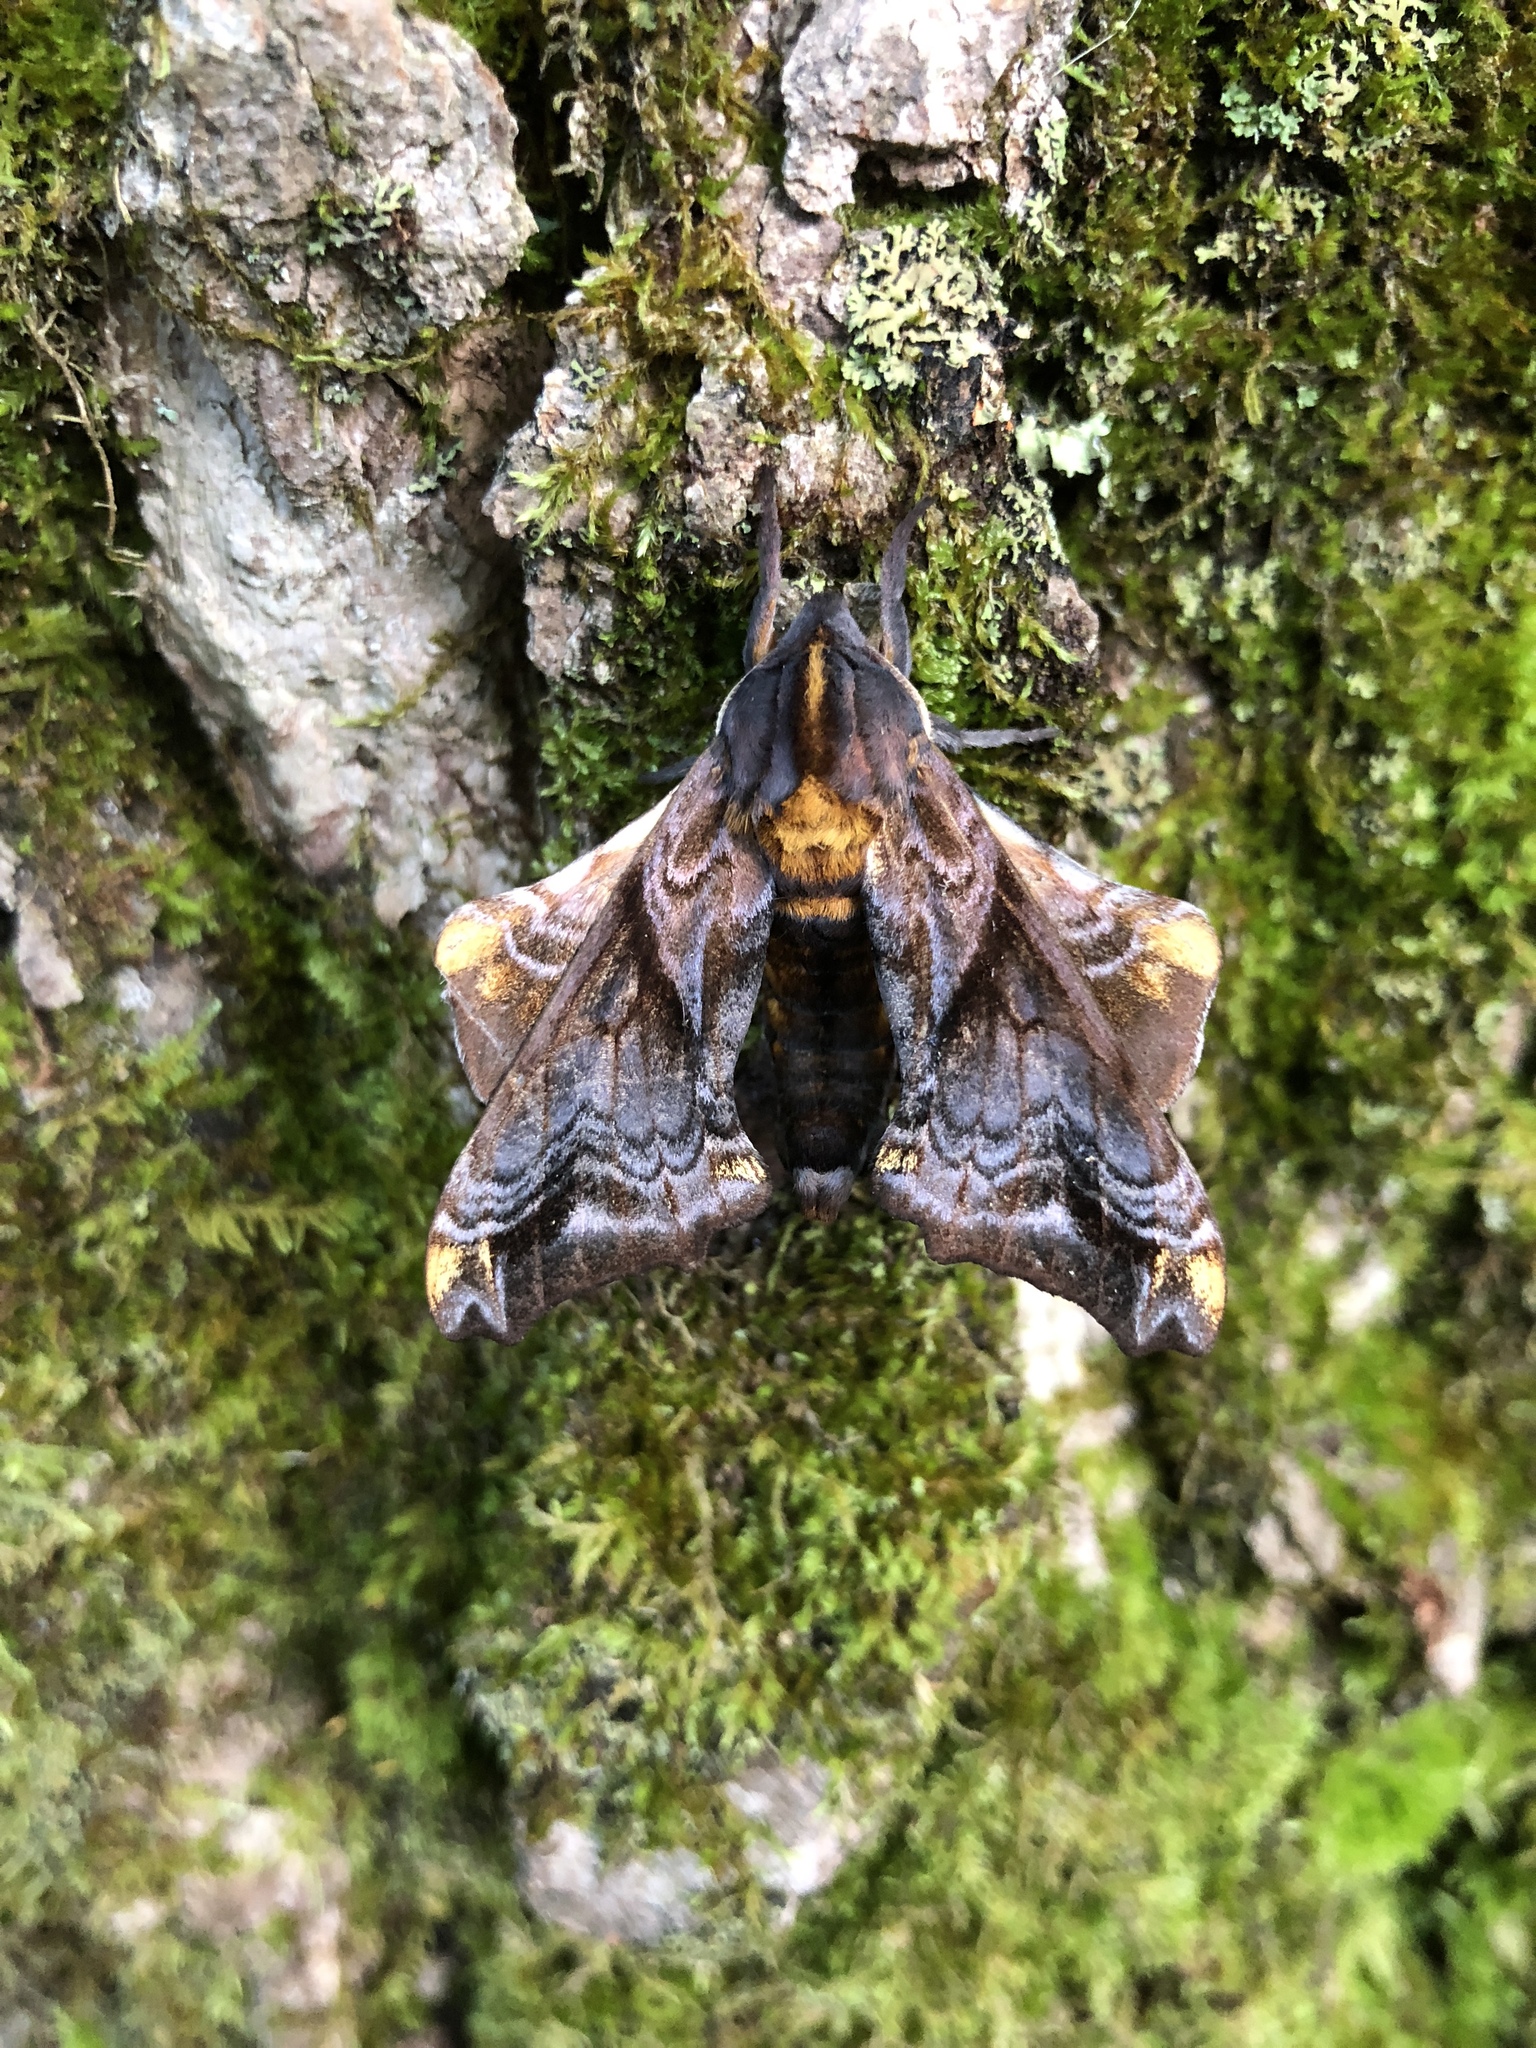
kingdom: Animalia
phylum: Arthropoda
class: Insecta
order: Lepidoptera
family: Sphingidae
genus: Paonias
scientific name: Paonias myops
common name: Small-eyed sphinx
